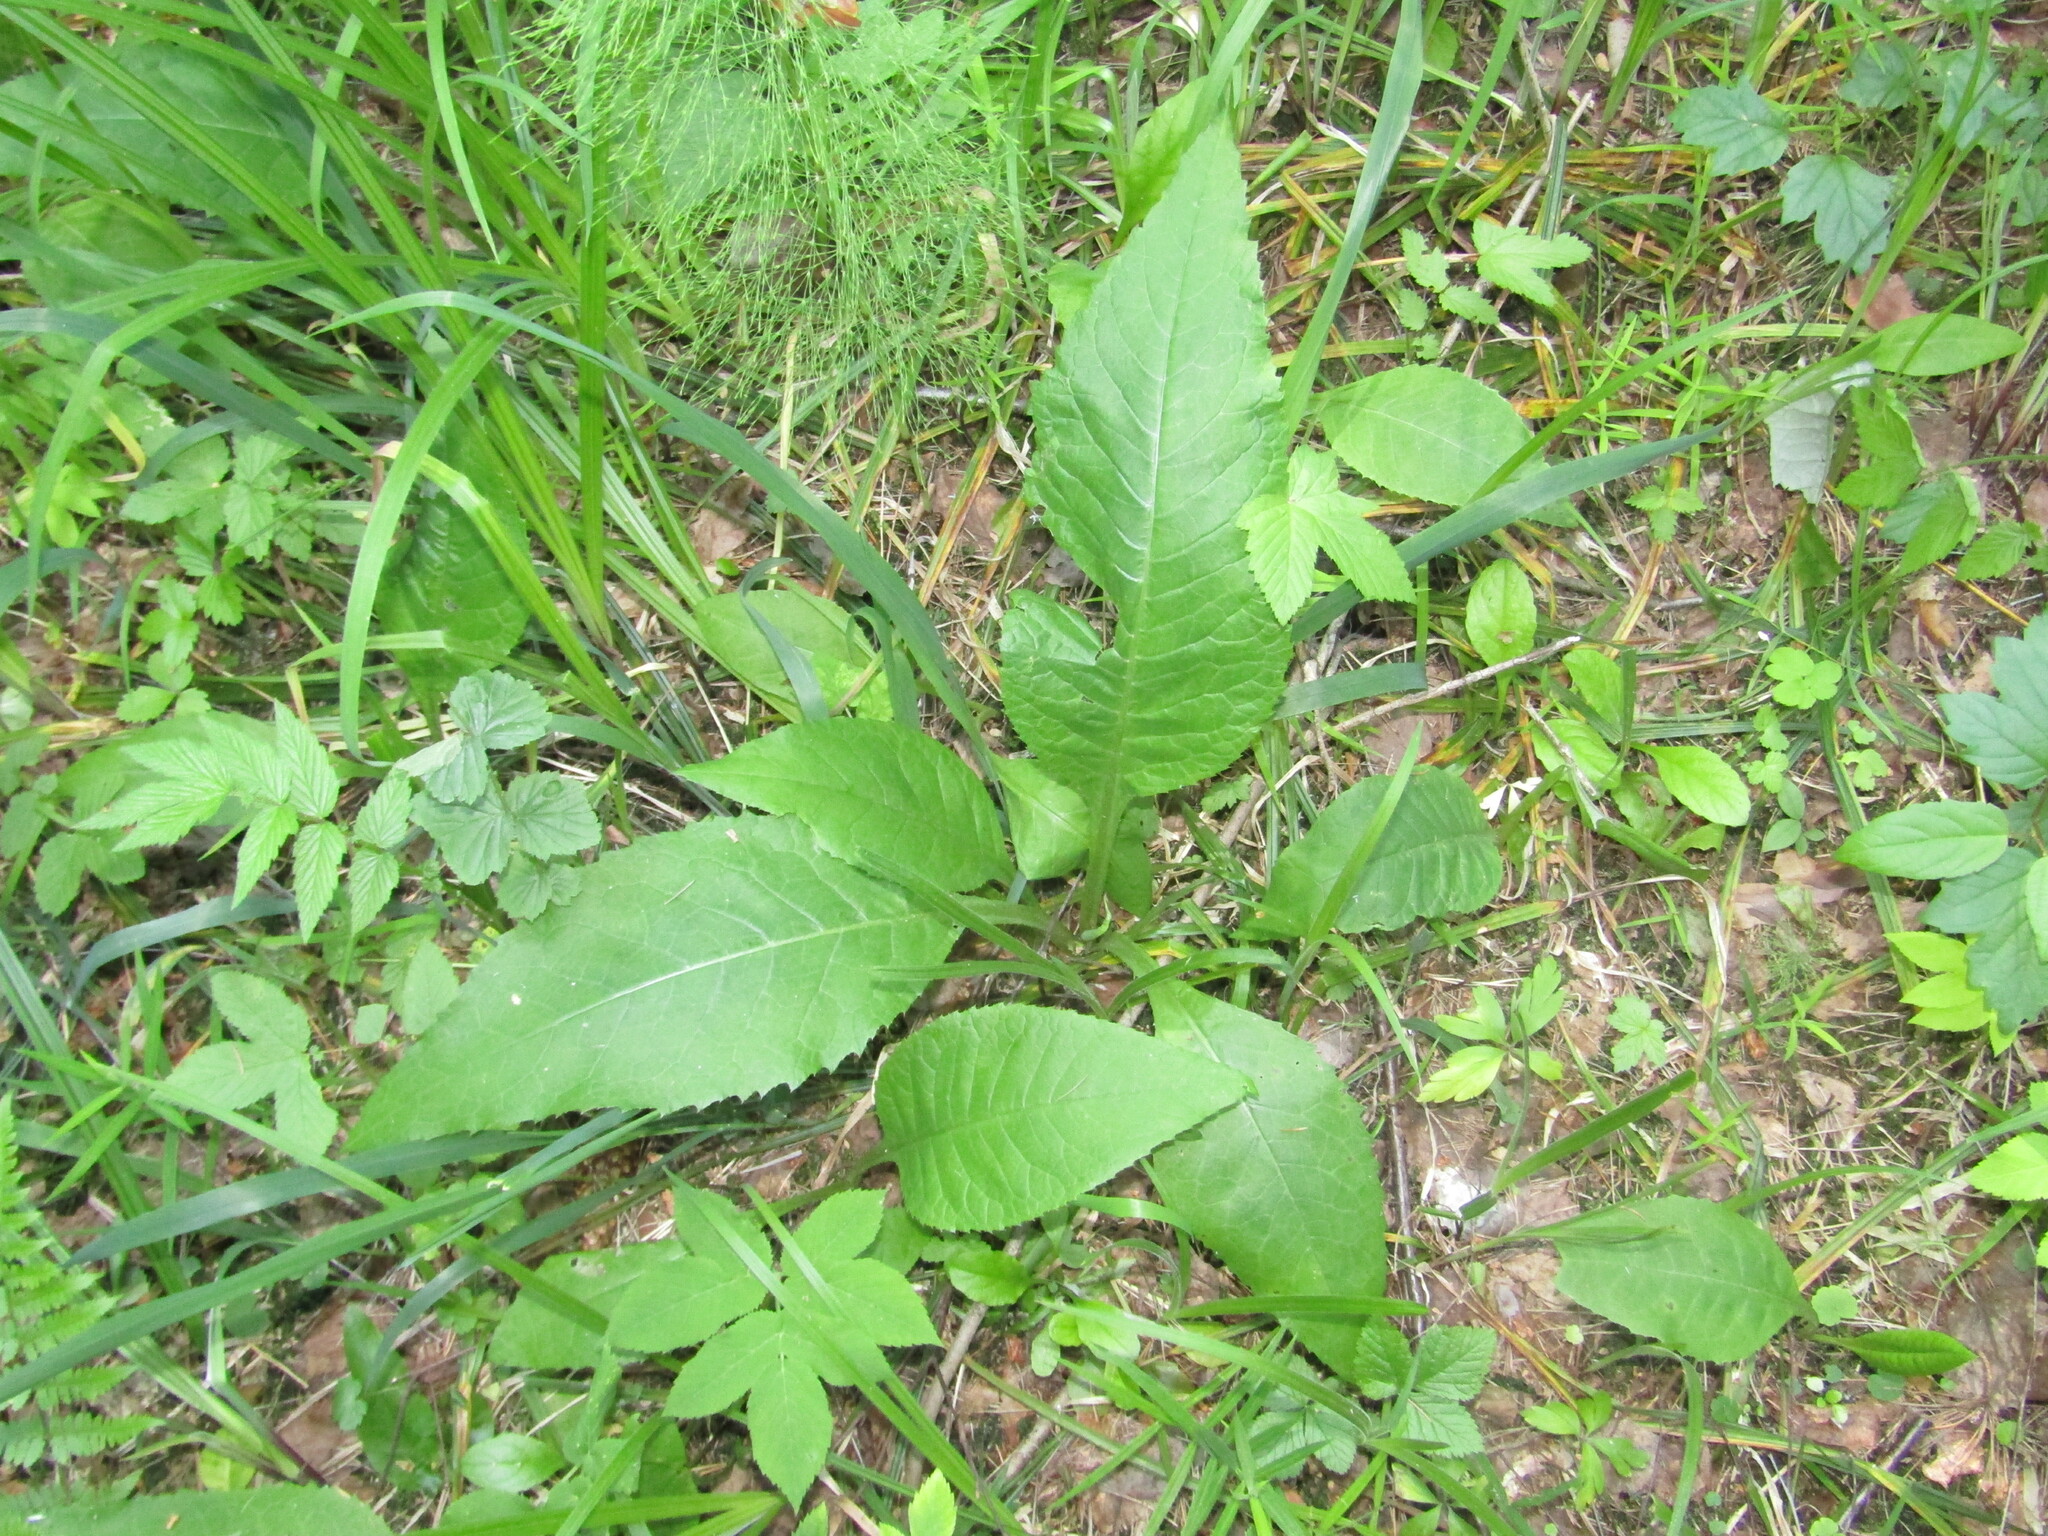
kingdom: Plantae
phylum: Tracheophyta
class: Magnoliopsida
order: Asterales
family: Asteraceae
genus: Cirsium
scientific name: Cirsium heterophyllum
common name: Melancholy thistle
